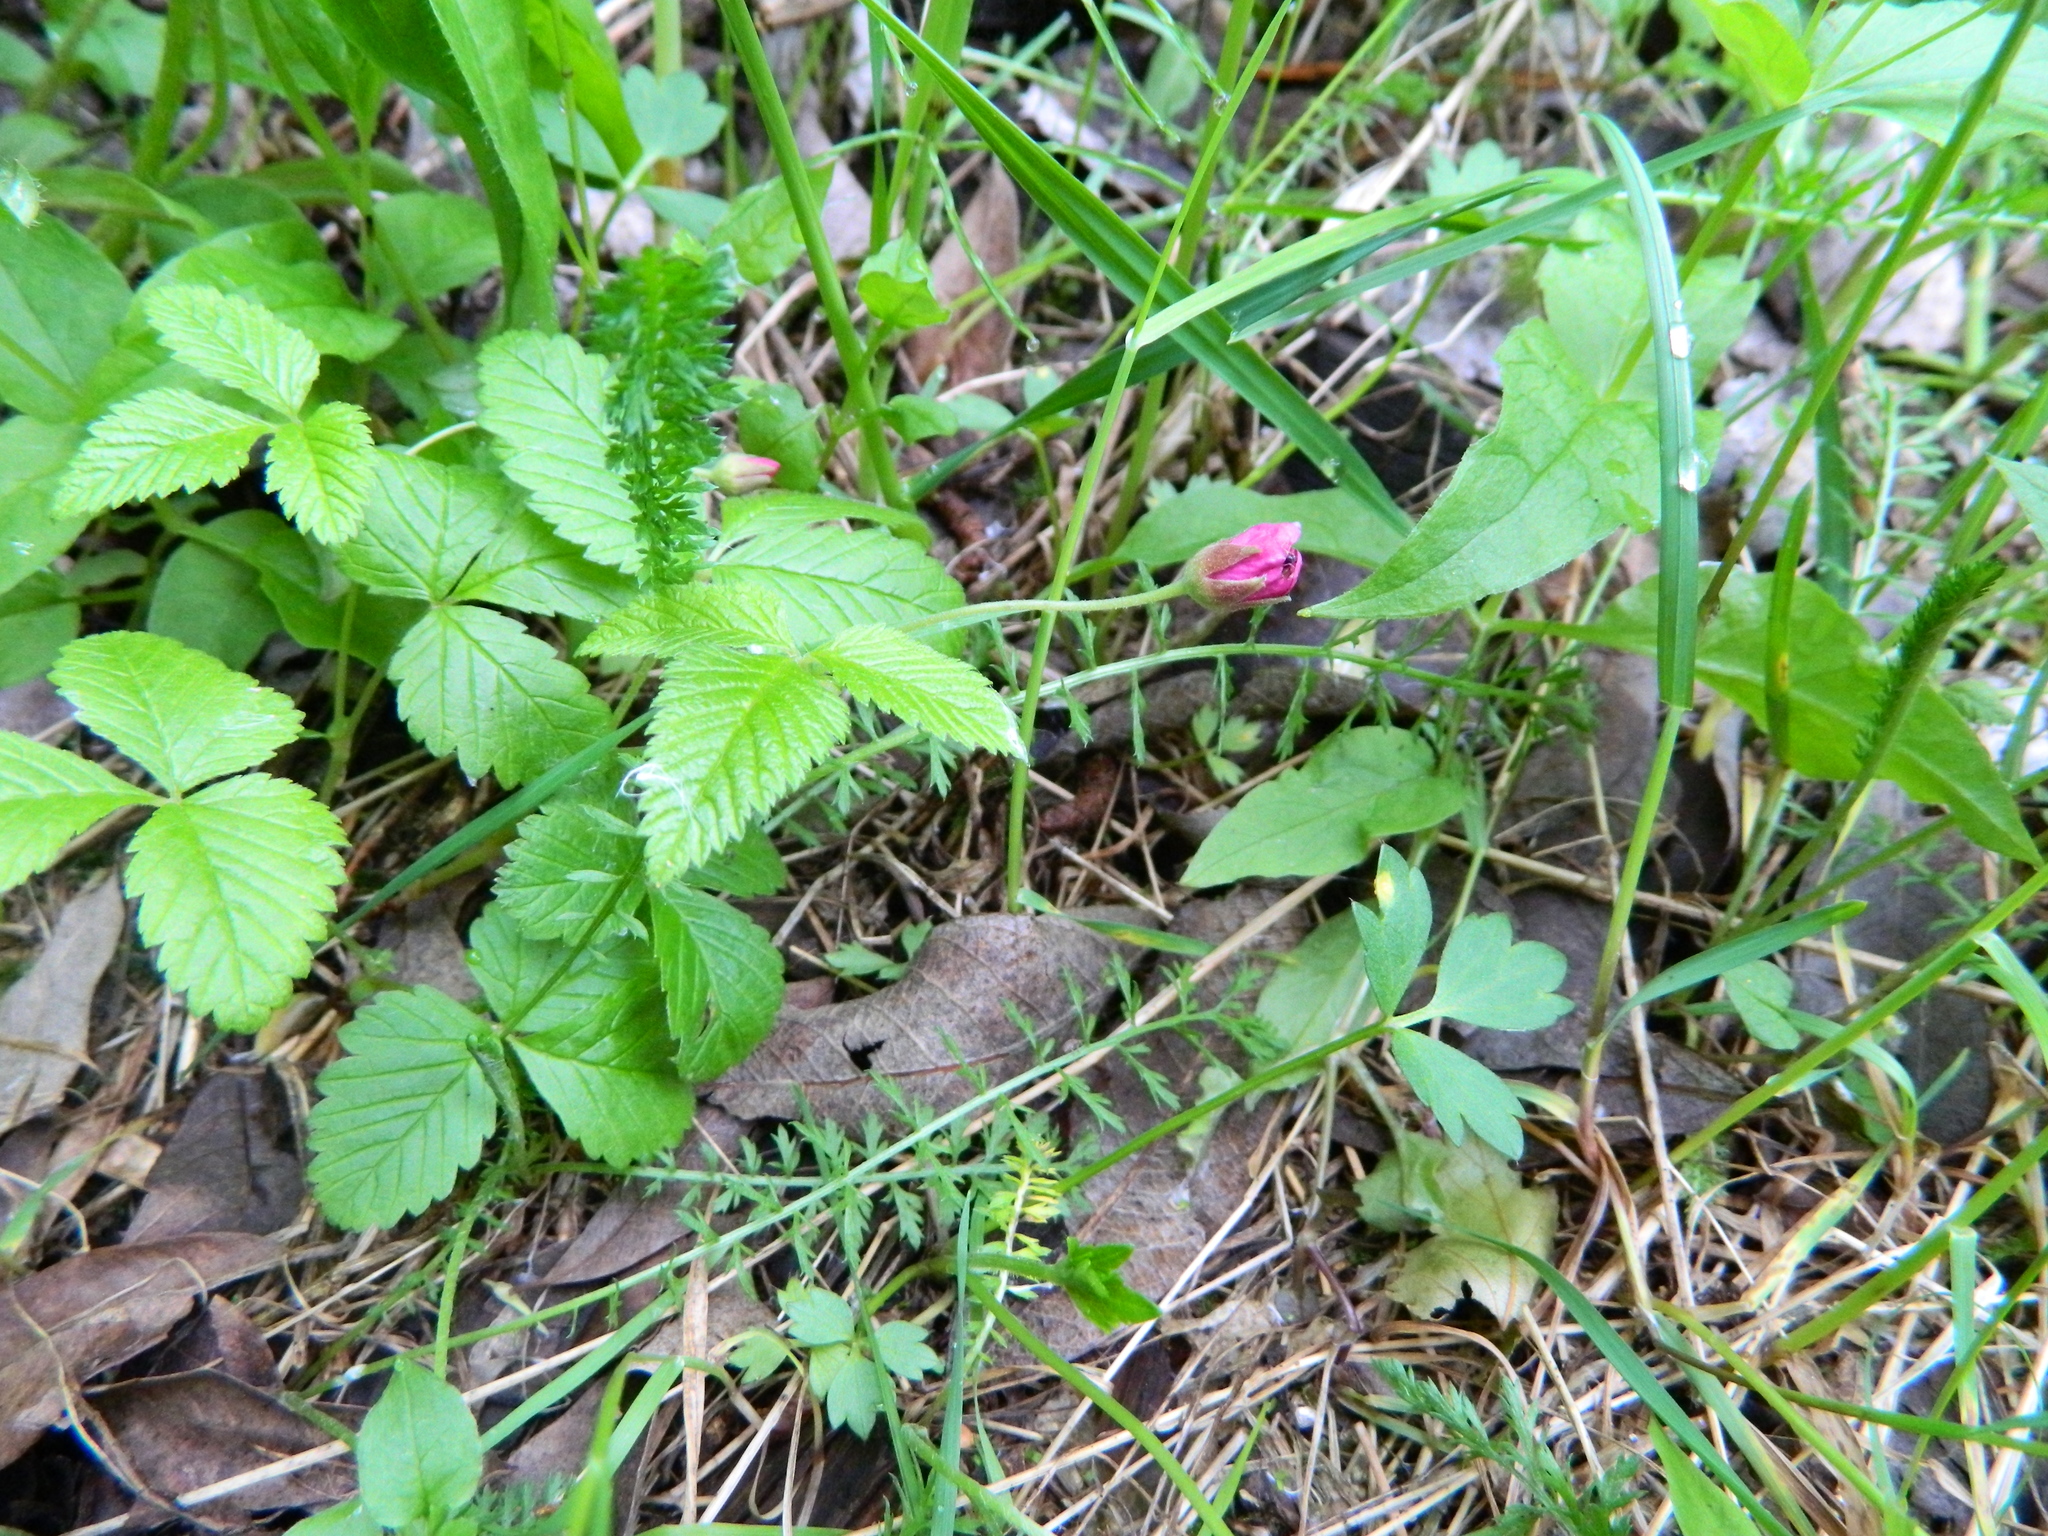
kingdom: Plantae
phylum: Tracheophyta
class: Magnoliopsida
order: Rosales
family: Rosaceae
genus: Rubus
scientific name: Rubus arcticus
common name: Arctic bramble
